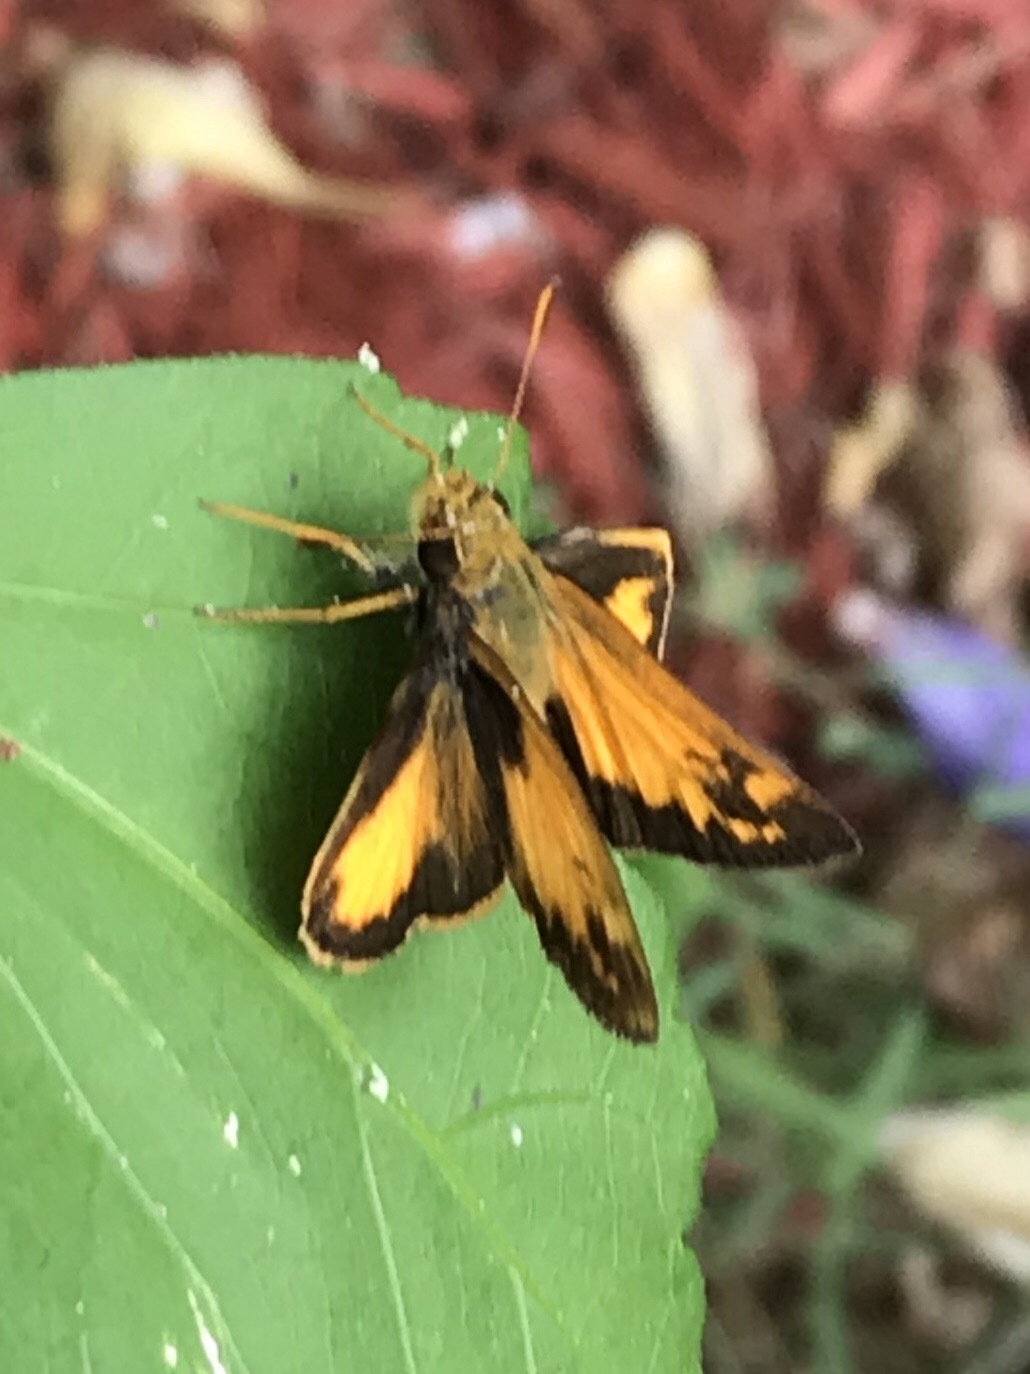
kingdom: Animalia
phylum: Arthropoda
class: Insecta
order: Lepidoptera
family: Hesperiidae
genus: Lon
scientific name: Lon zabulon
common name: Zabulon skipper
